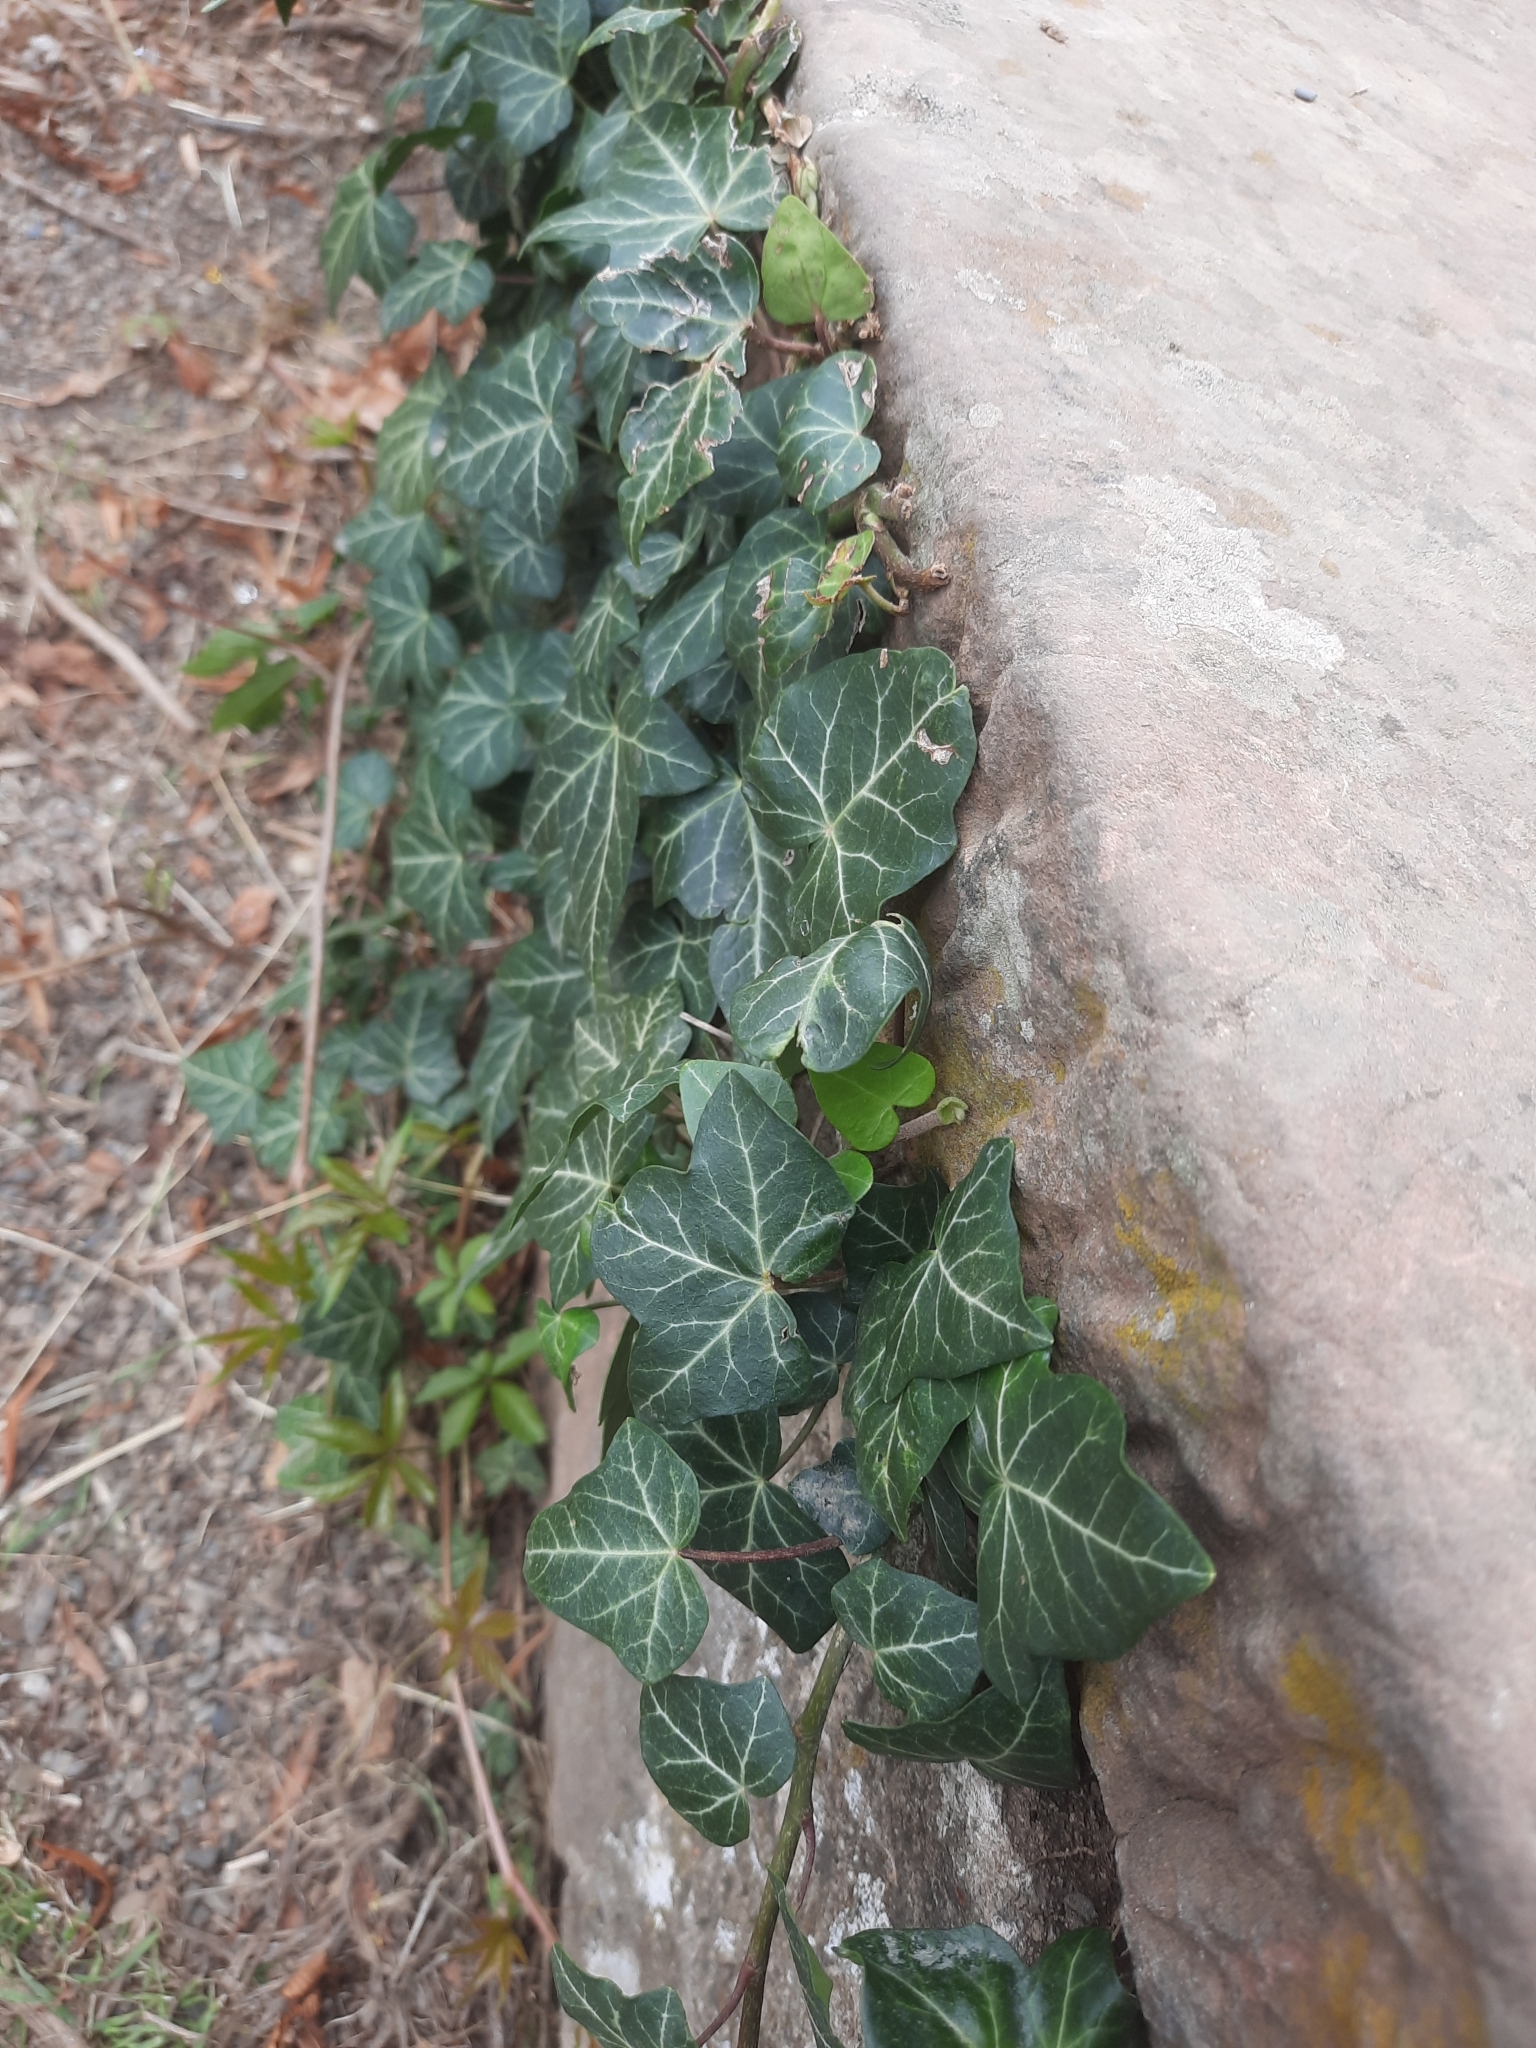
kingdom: Plantae
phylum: Tracheophyta
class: Magnoliopsida
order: Apiales
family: Araliaceae
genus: Hedera
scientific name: Hedera helix
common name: Ivy
